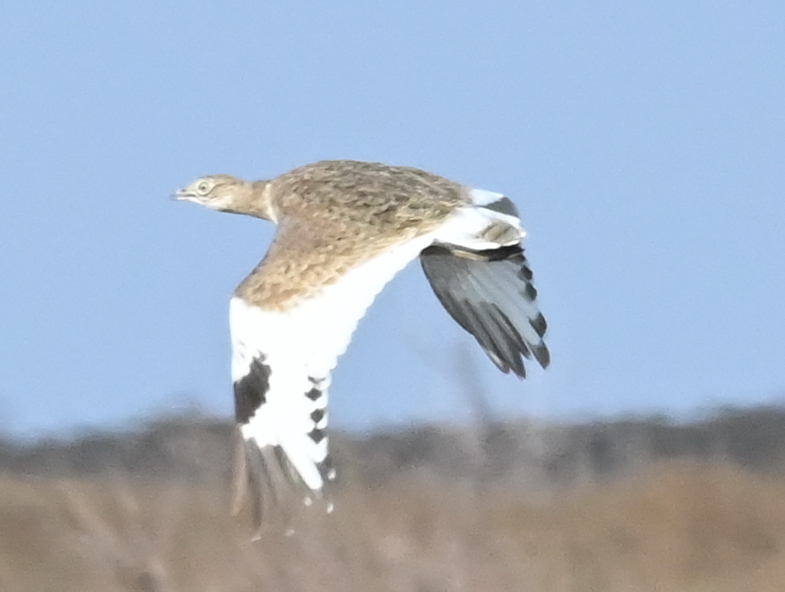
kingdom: Animalia
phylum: Chordata
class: Aves
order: Otidiformes
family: Otididae
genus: Tetrax
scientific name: Tetrax tetrax
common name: Little bustard
